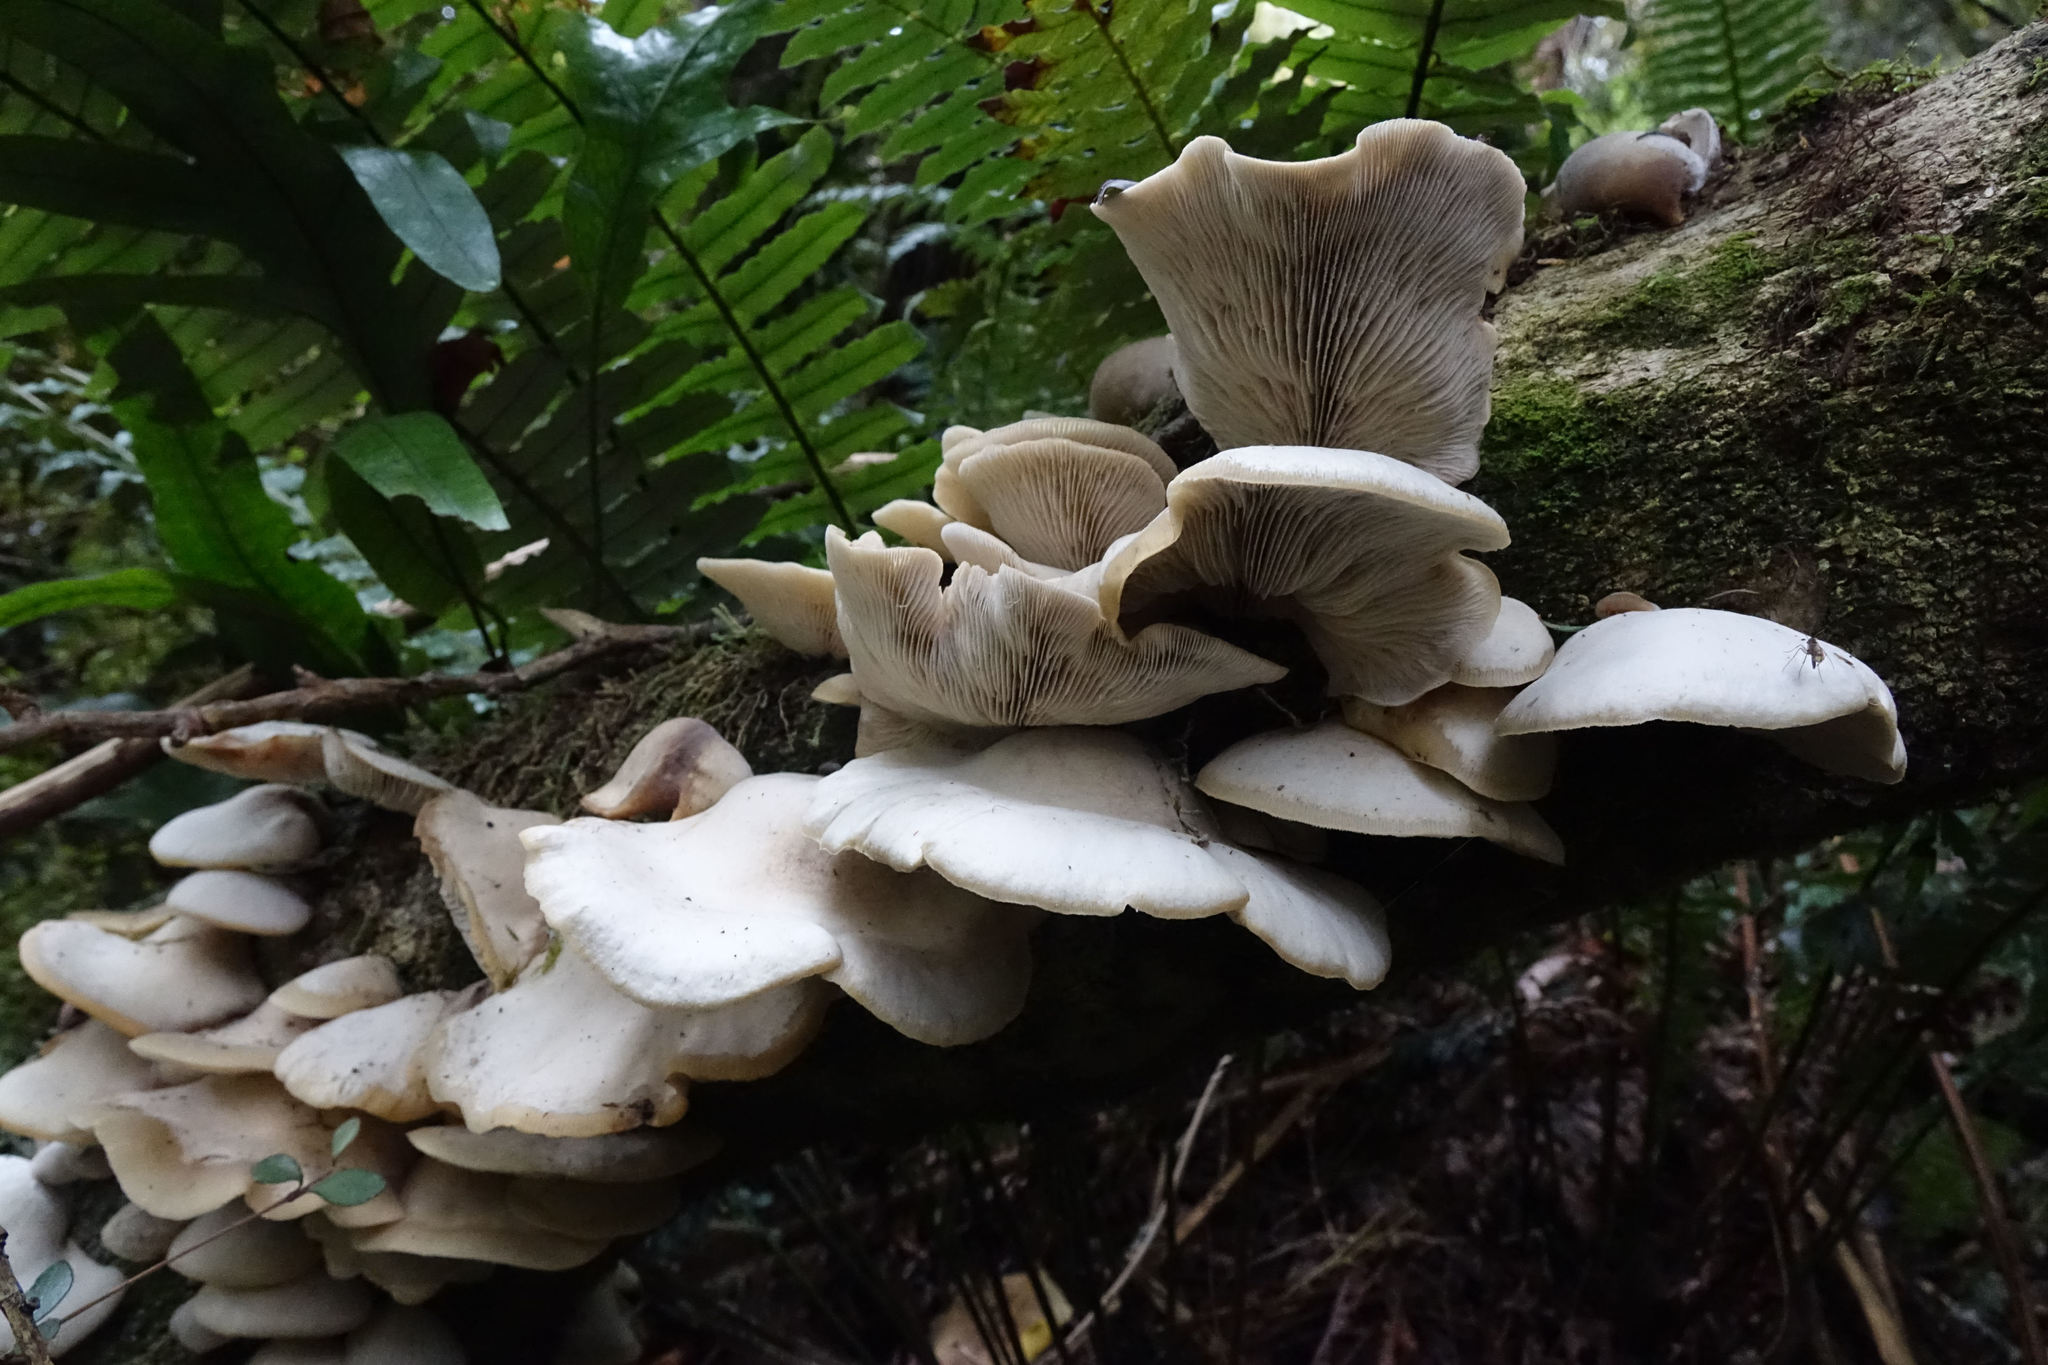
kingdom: Fungi
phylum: Basidiomycota
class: Agaricomycetes
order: Agaricales
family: Tricholomataceae
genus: Conchomyces
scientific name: Conchomyces bursiformis
